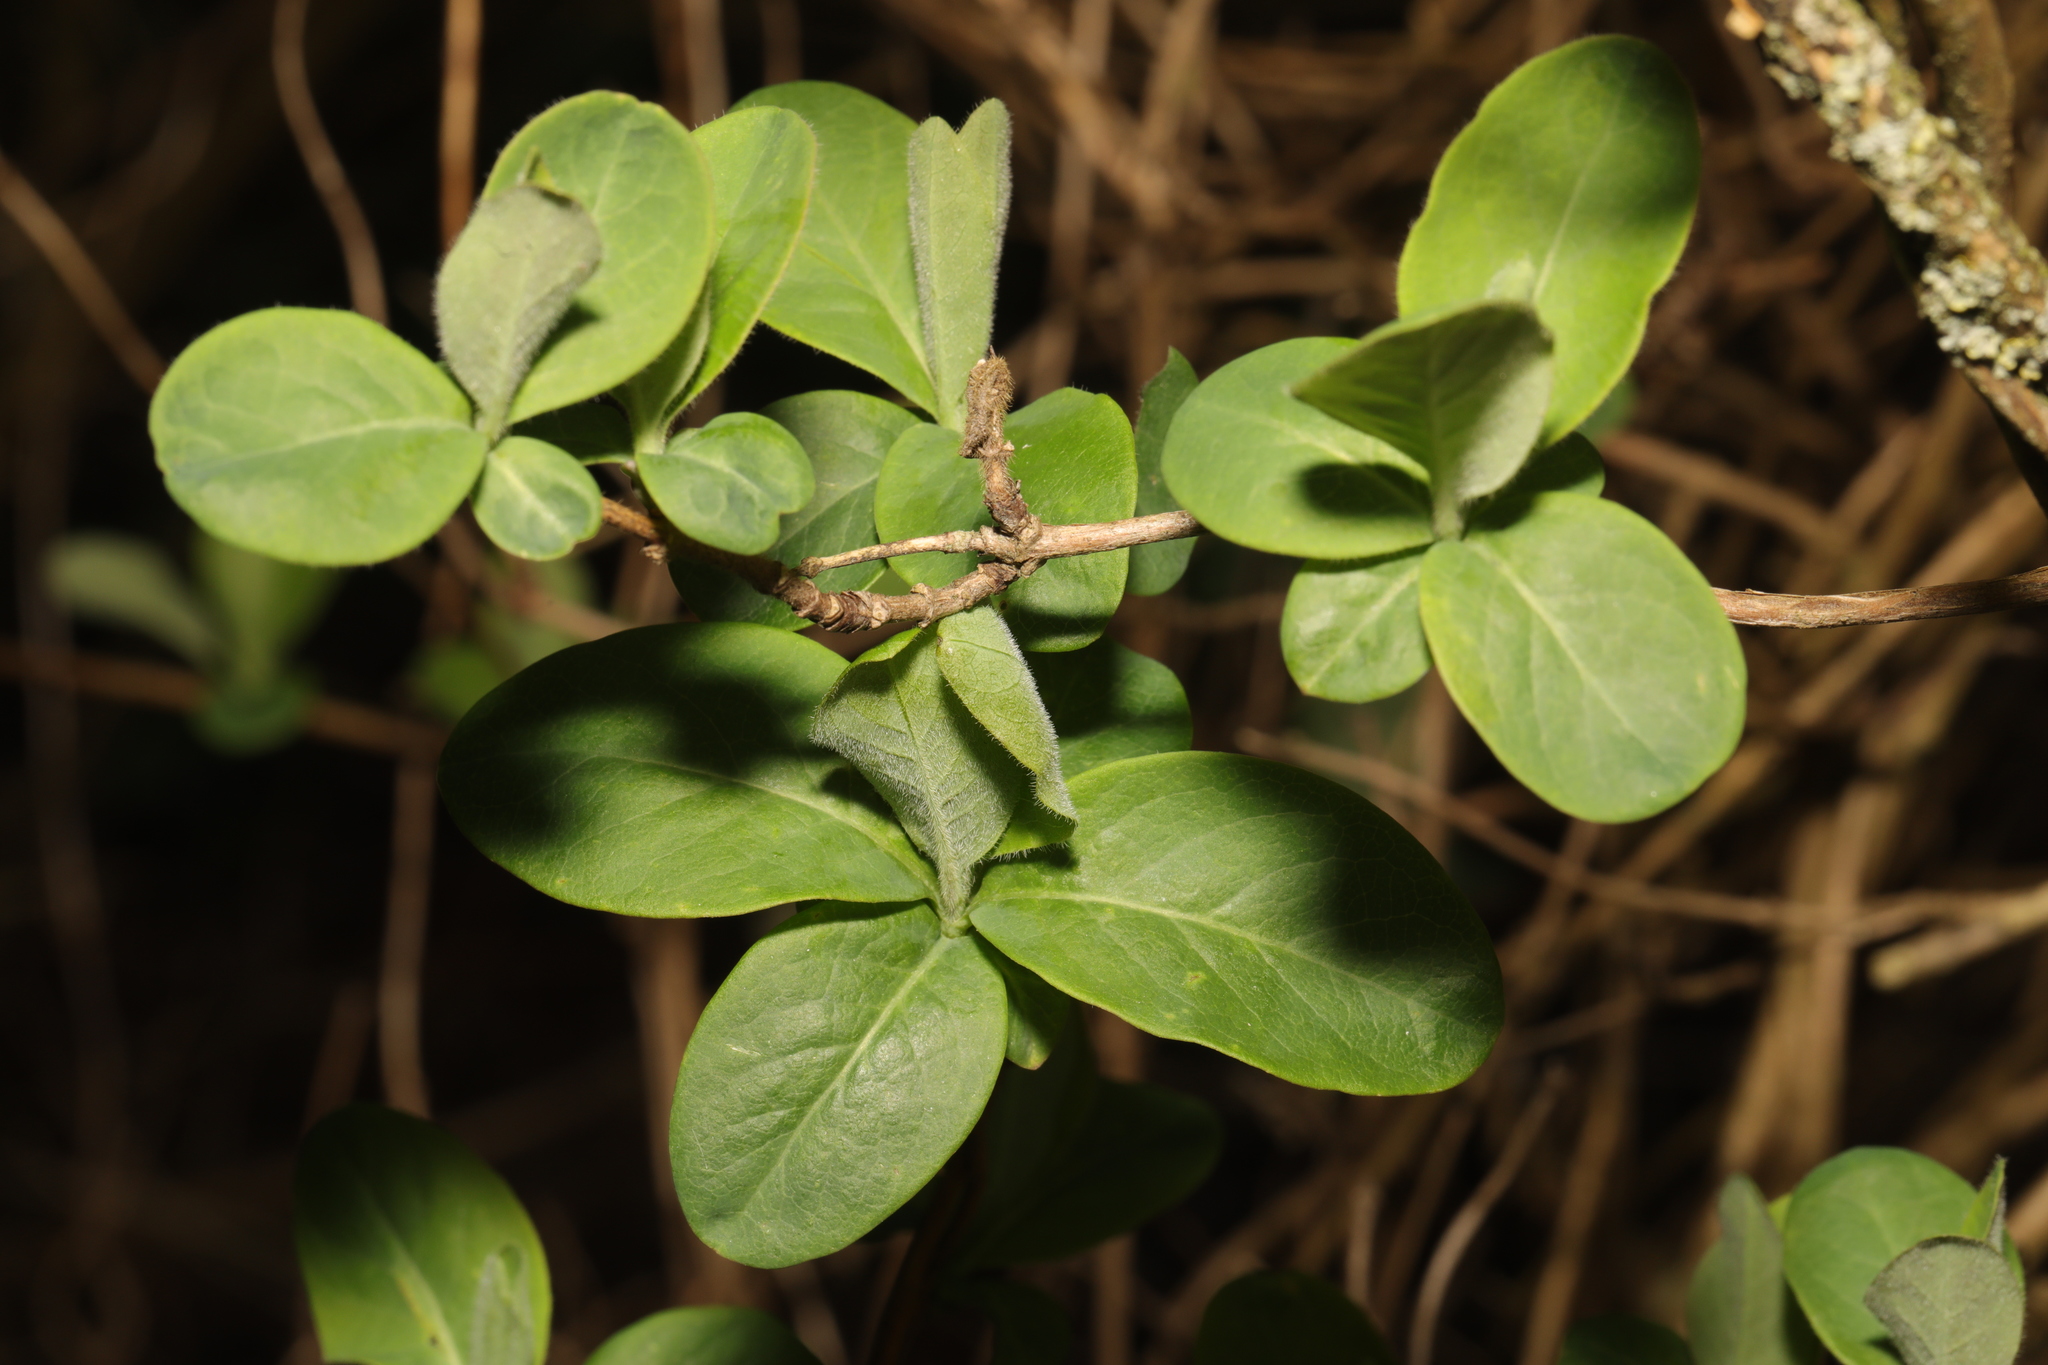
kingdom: Plantae
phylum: Tracheophyta
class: Magnoliopsida
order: Dipsacales
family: Caprifoliaceae
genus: Lonicera
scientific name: Lonicera periclymenum
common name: European honeysuckle
